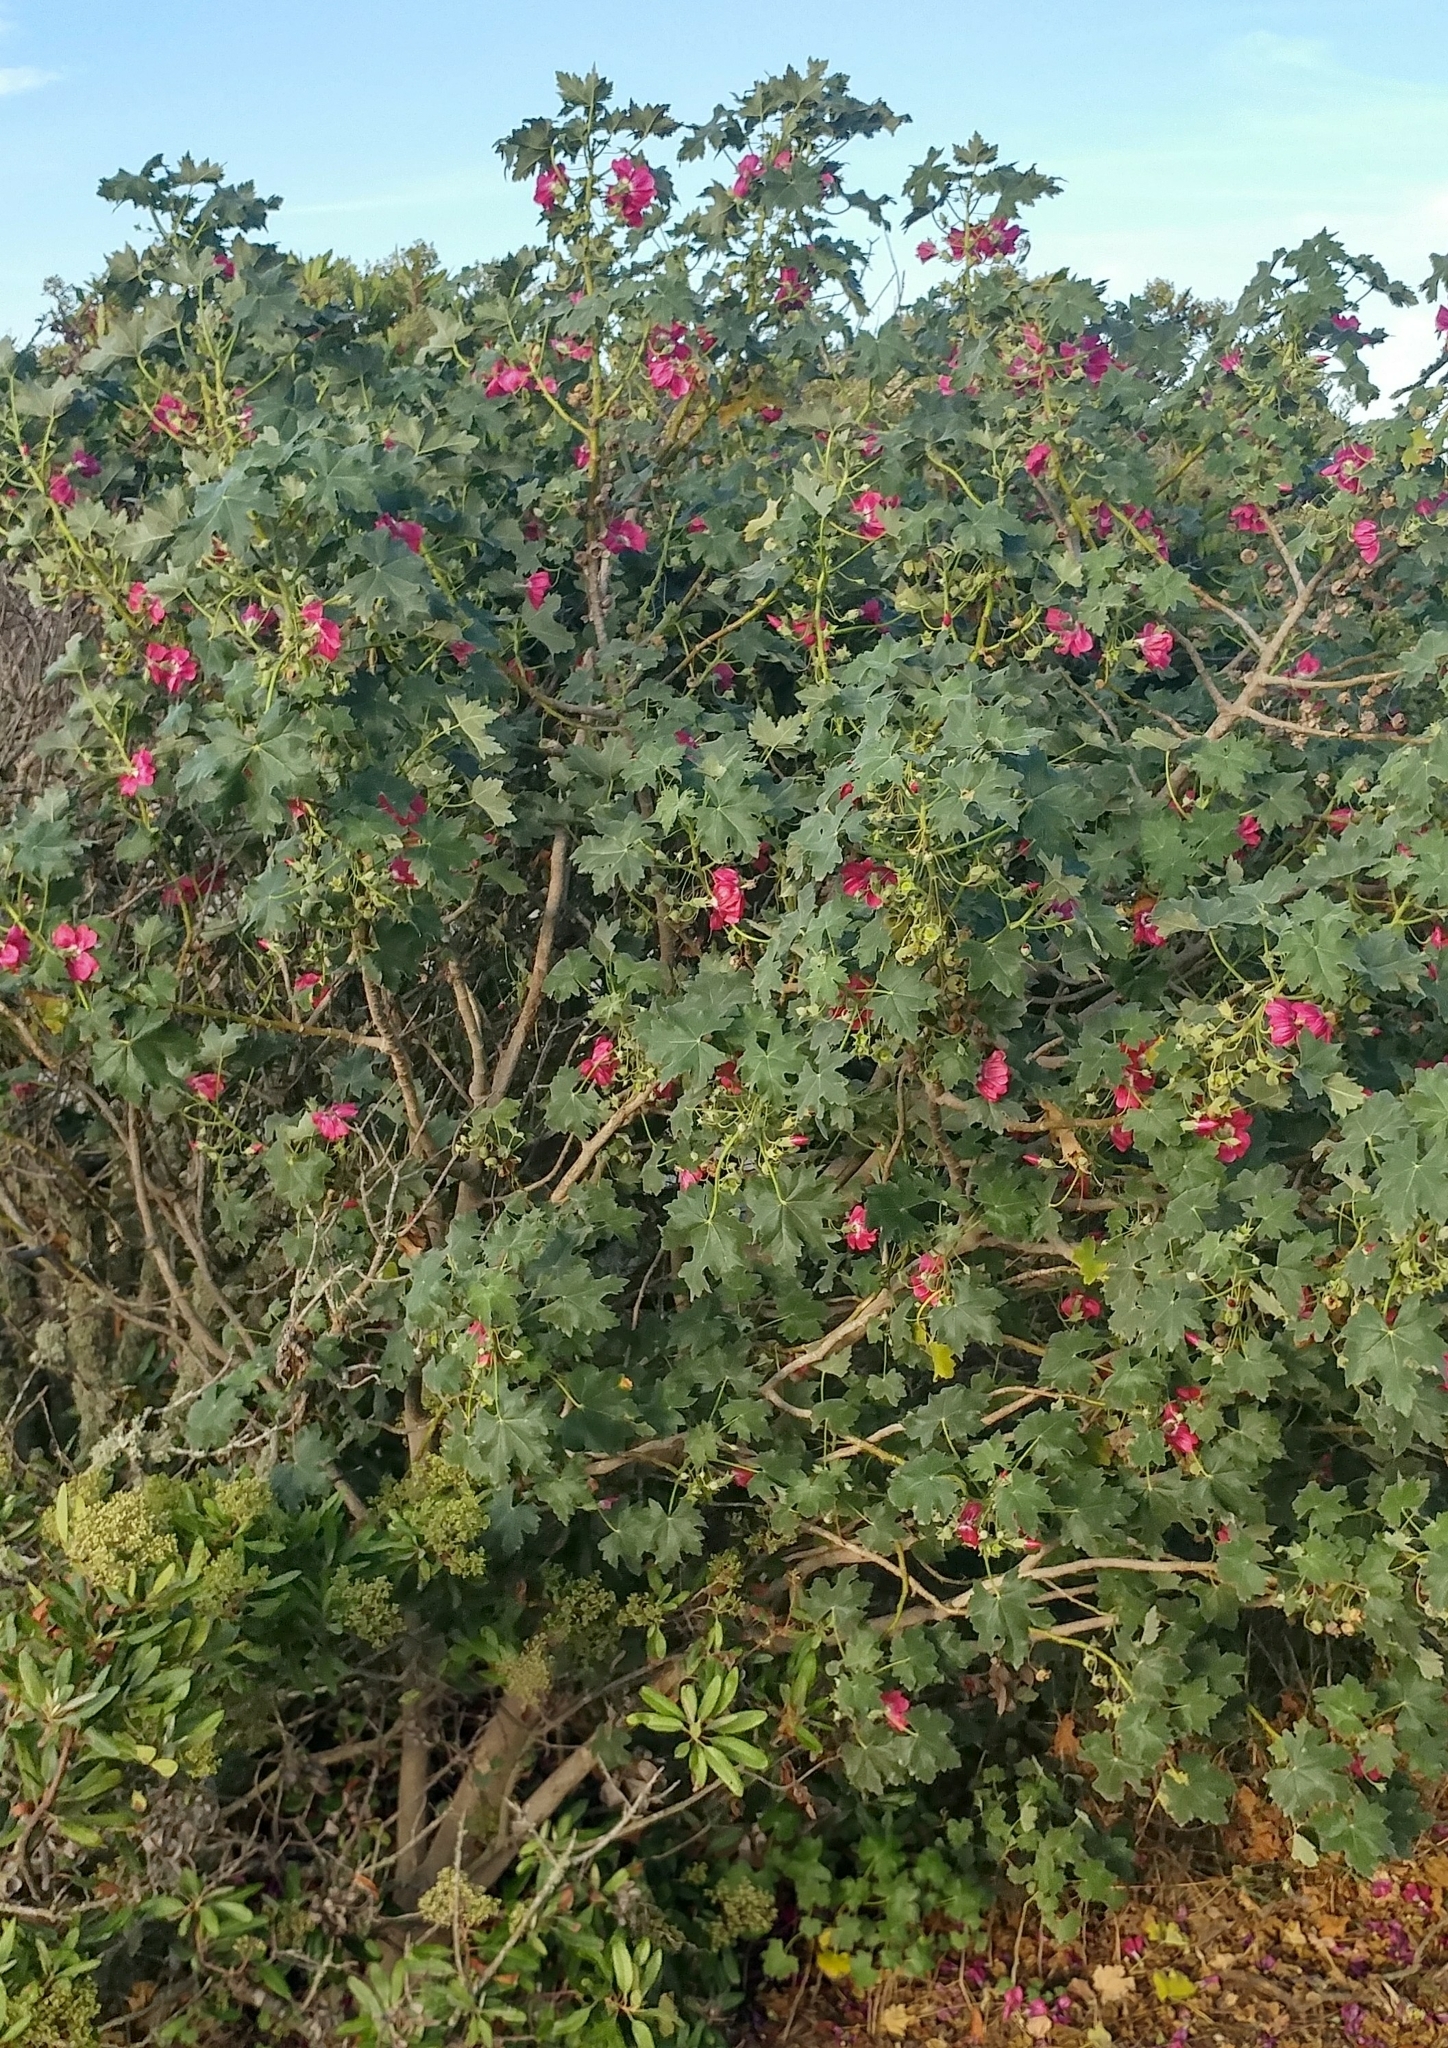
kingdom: Plantae
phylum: Tracheophyta
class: Magnoliopsida
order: Malvales
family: Malvaceae
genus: Malva
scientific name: Malva assurgentiflora
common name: Island mallow
